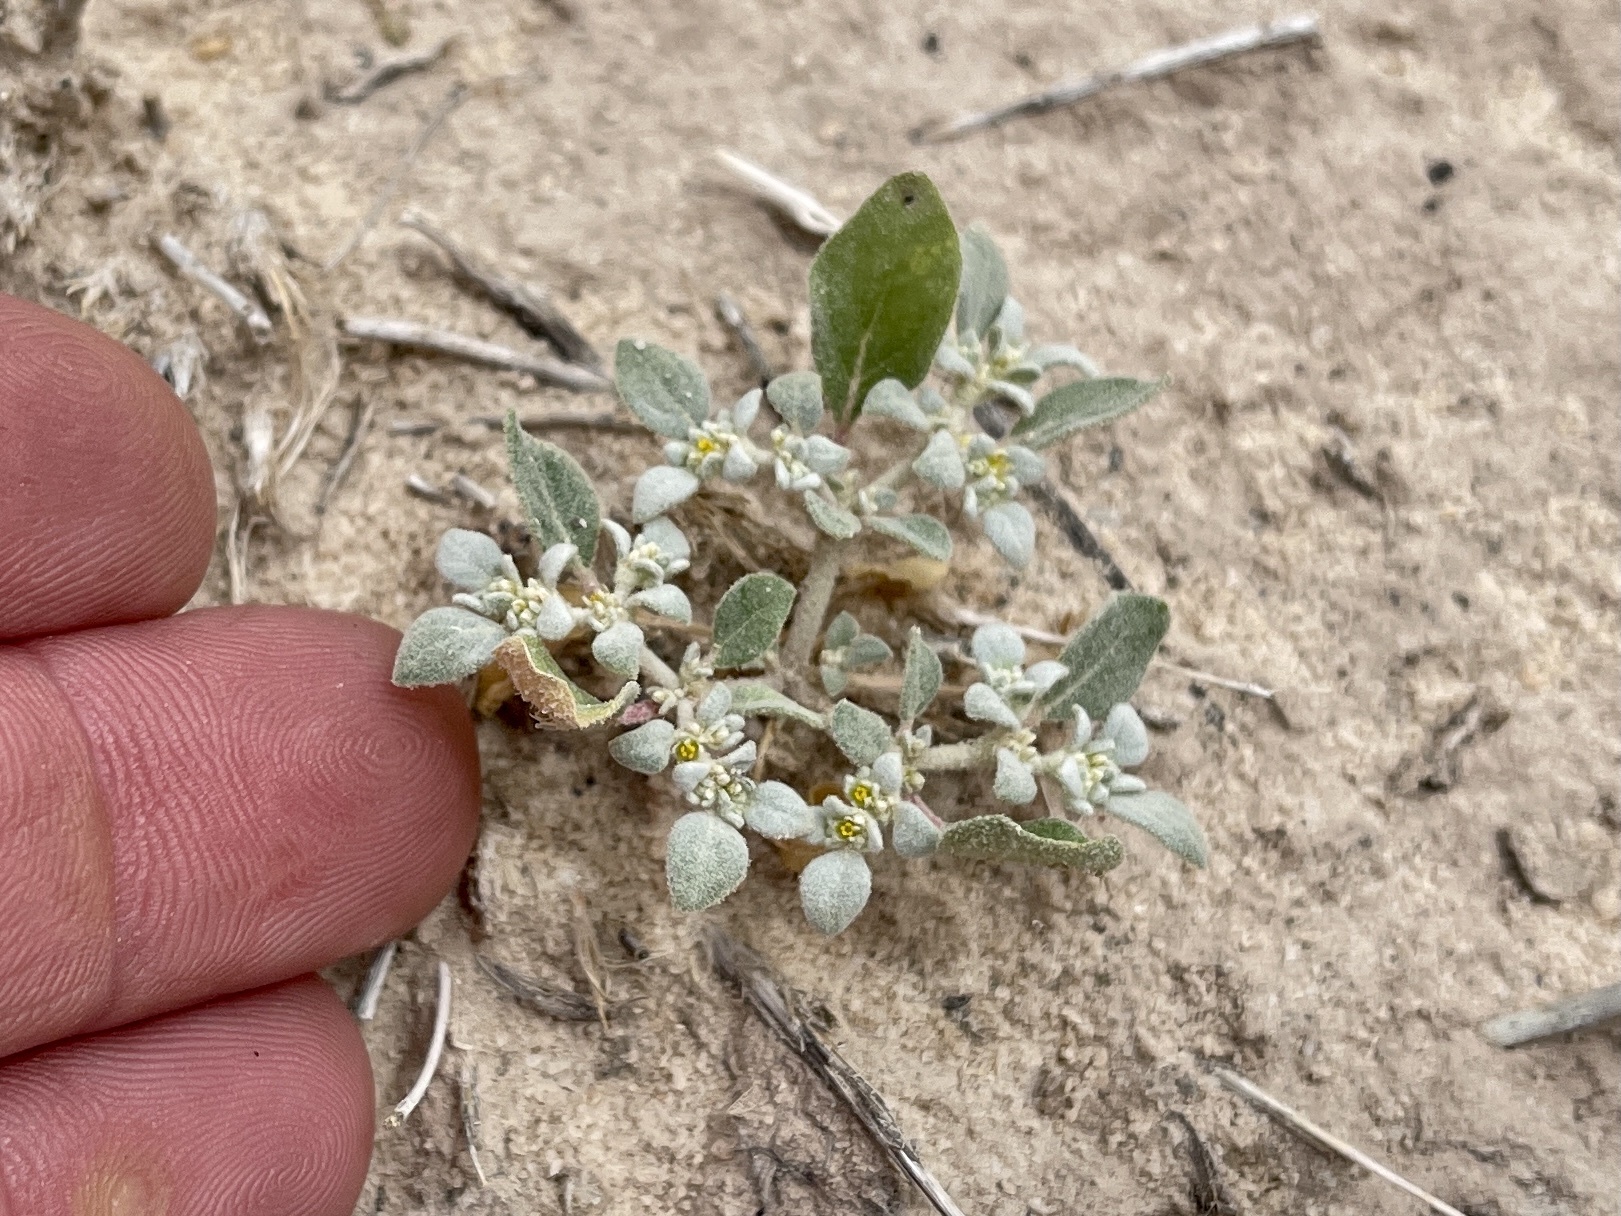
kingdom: Plantae
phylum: Tracheophyta
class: Magnoliopsida
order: Caryophyllales
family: Amaranthaceae
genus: Tidestromia
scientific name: Tidestromia lanuginosa
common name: Woolly tidestromia
